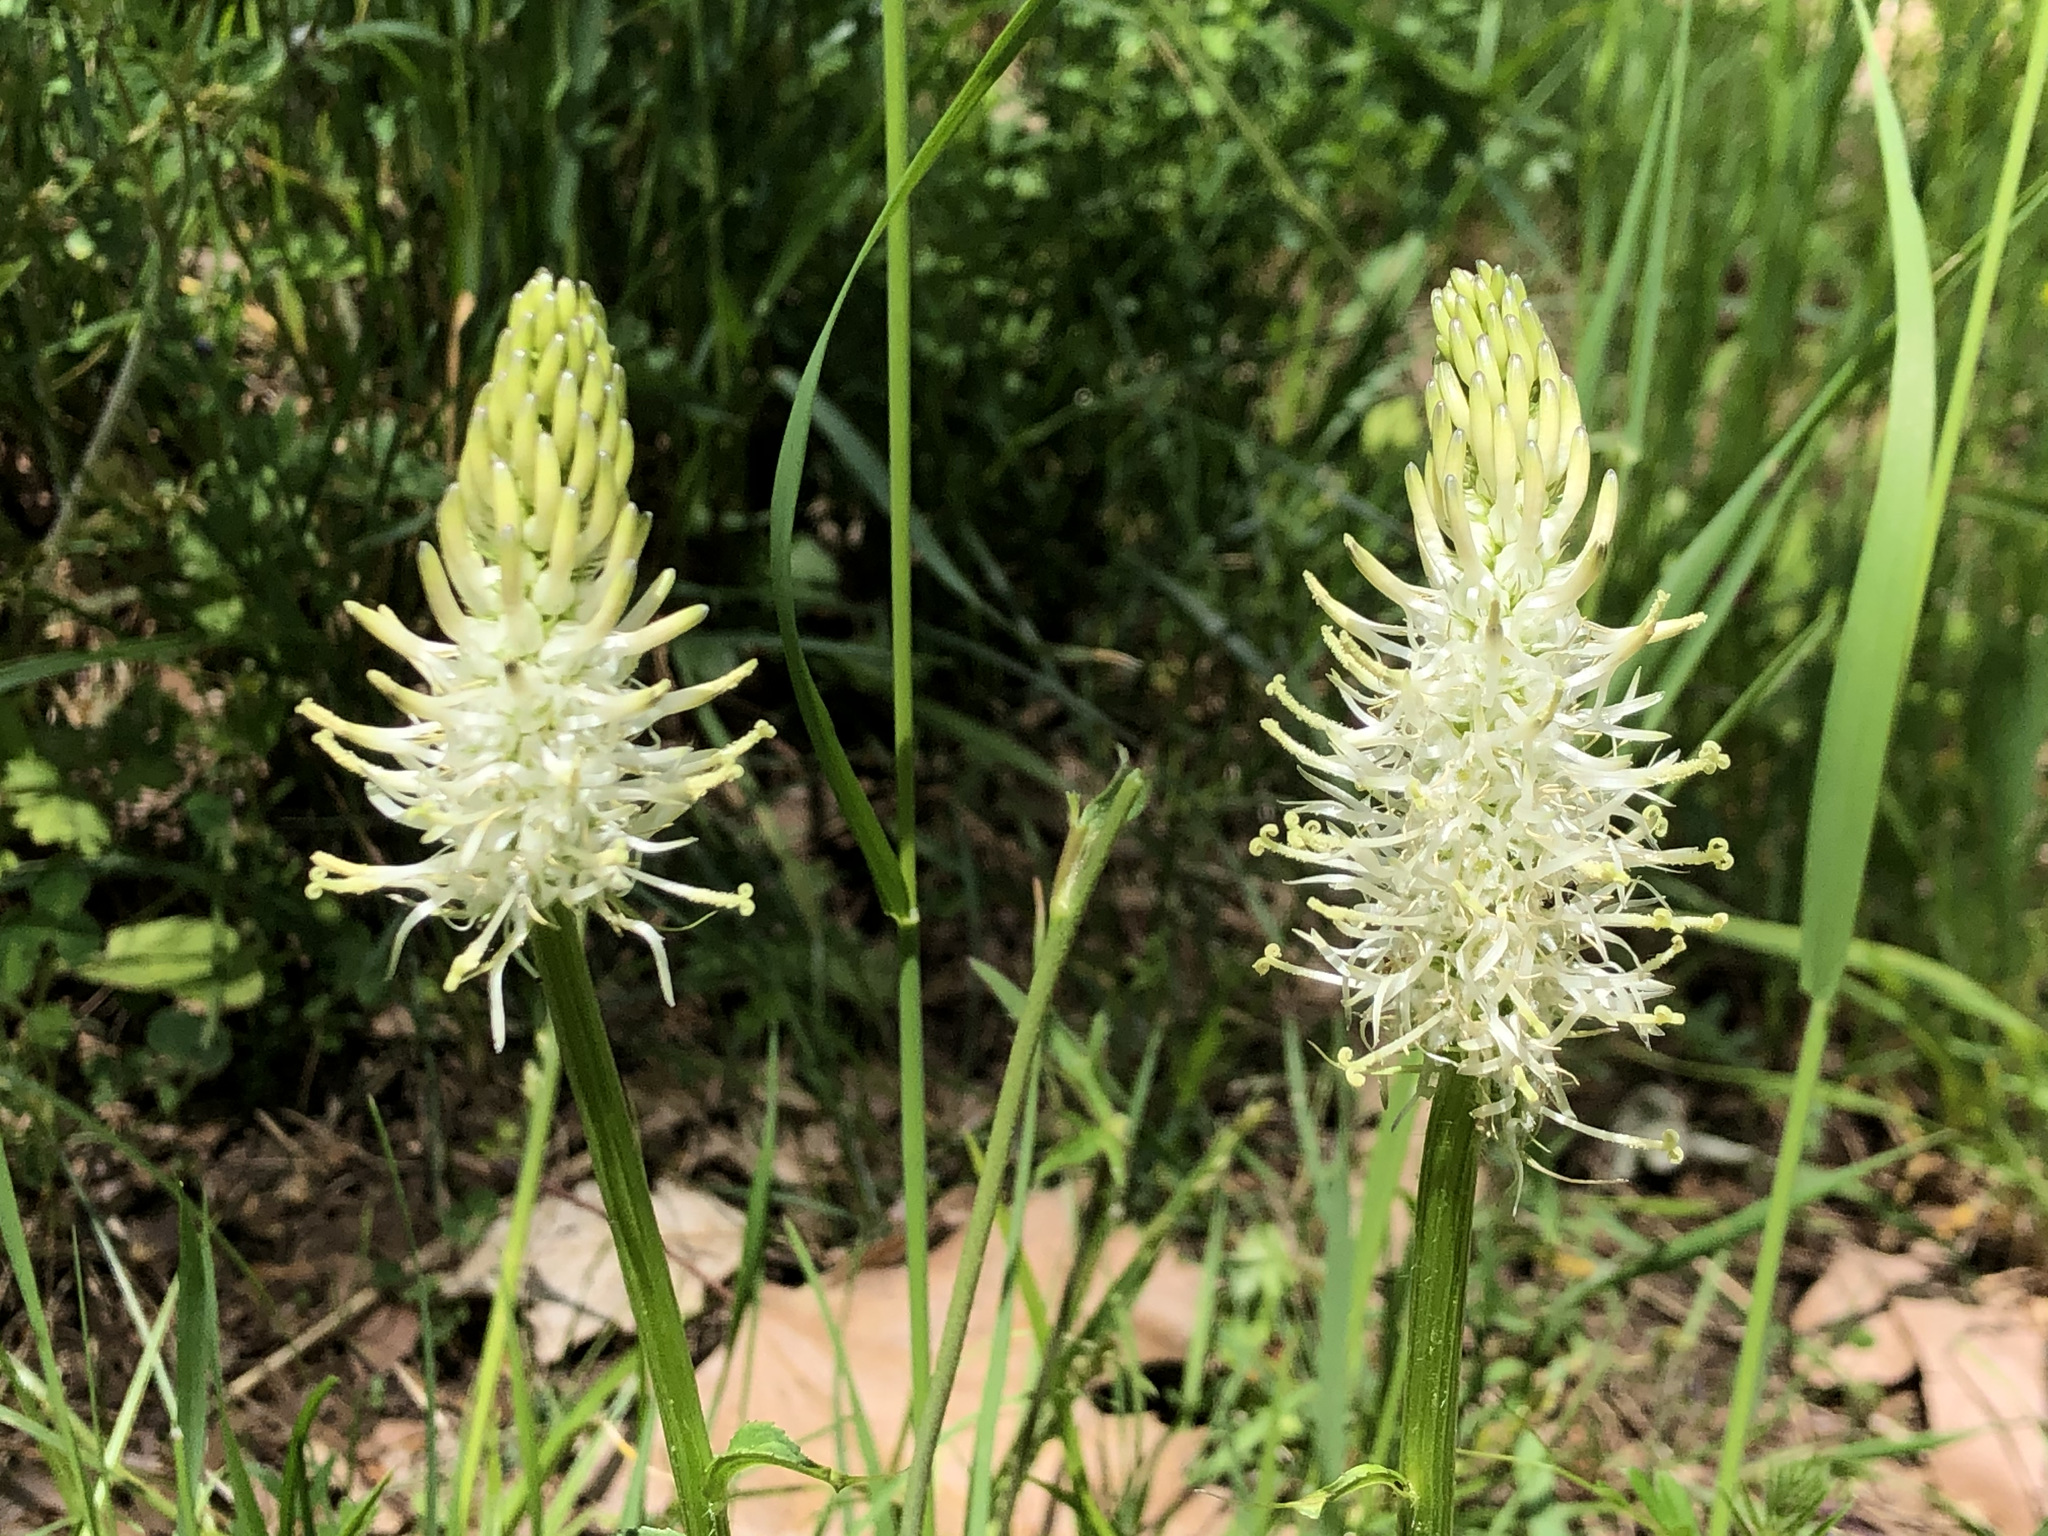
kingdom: Plantae
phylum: Tracheophyta
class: Magnoliopsida
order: Asterales
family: Campanulaceae
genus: Phyteuma
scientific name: Phyteuma spicatum
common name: Spiked rampion
